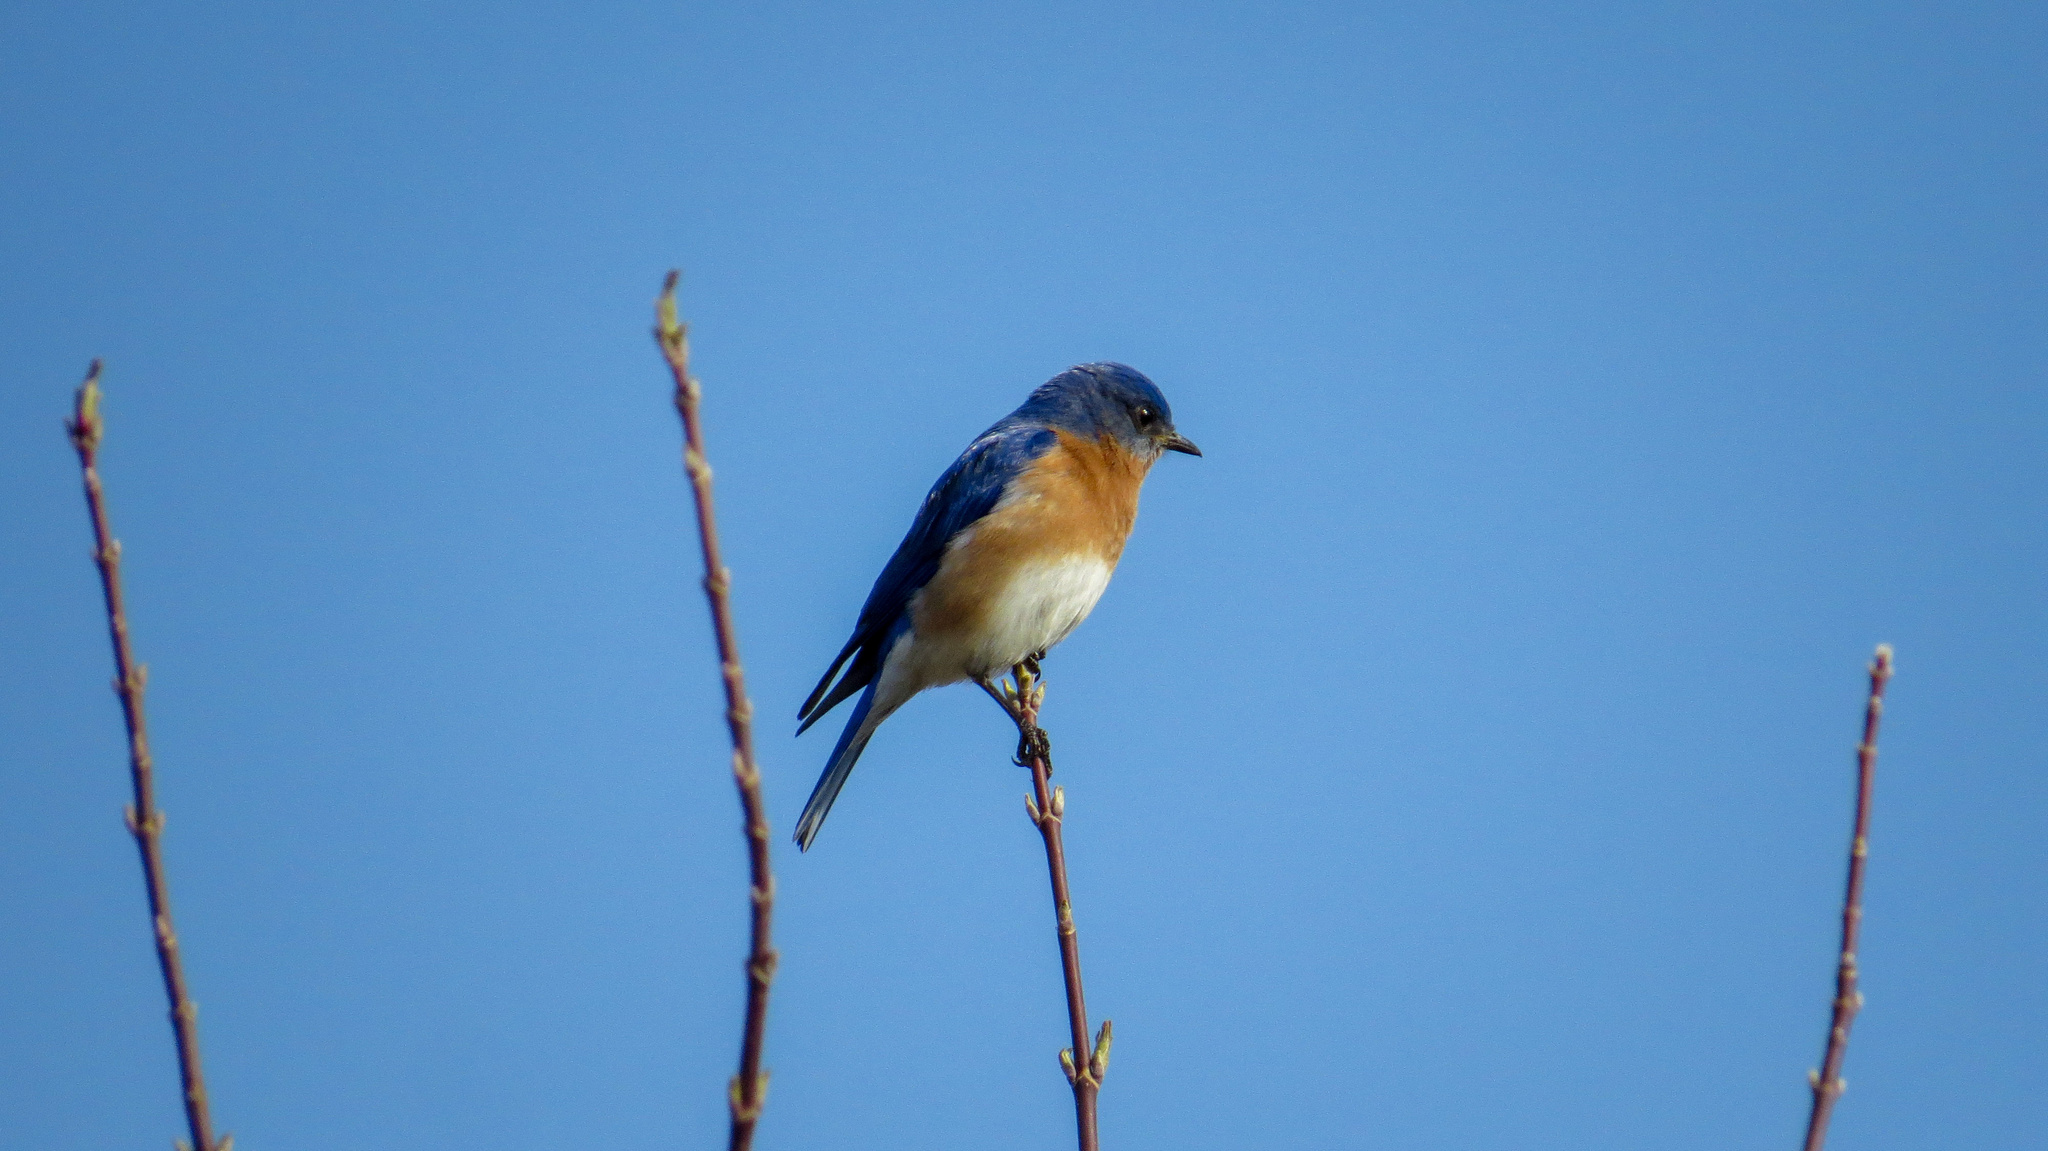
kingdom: Animalia
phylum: Chordata
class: Aves
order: Passeriformes
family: Turdidae
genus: Sialia
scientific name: Sialia sialis
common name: Eastern bluebird
